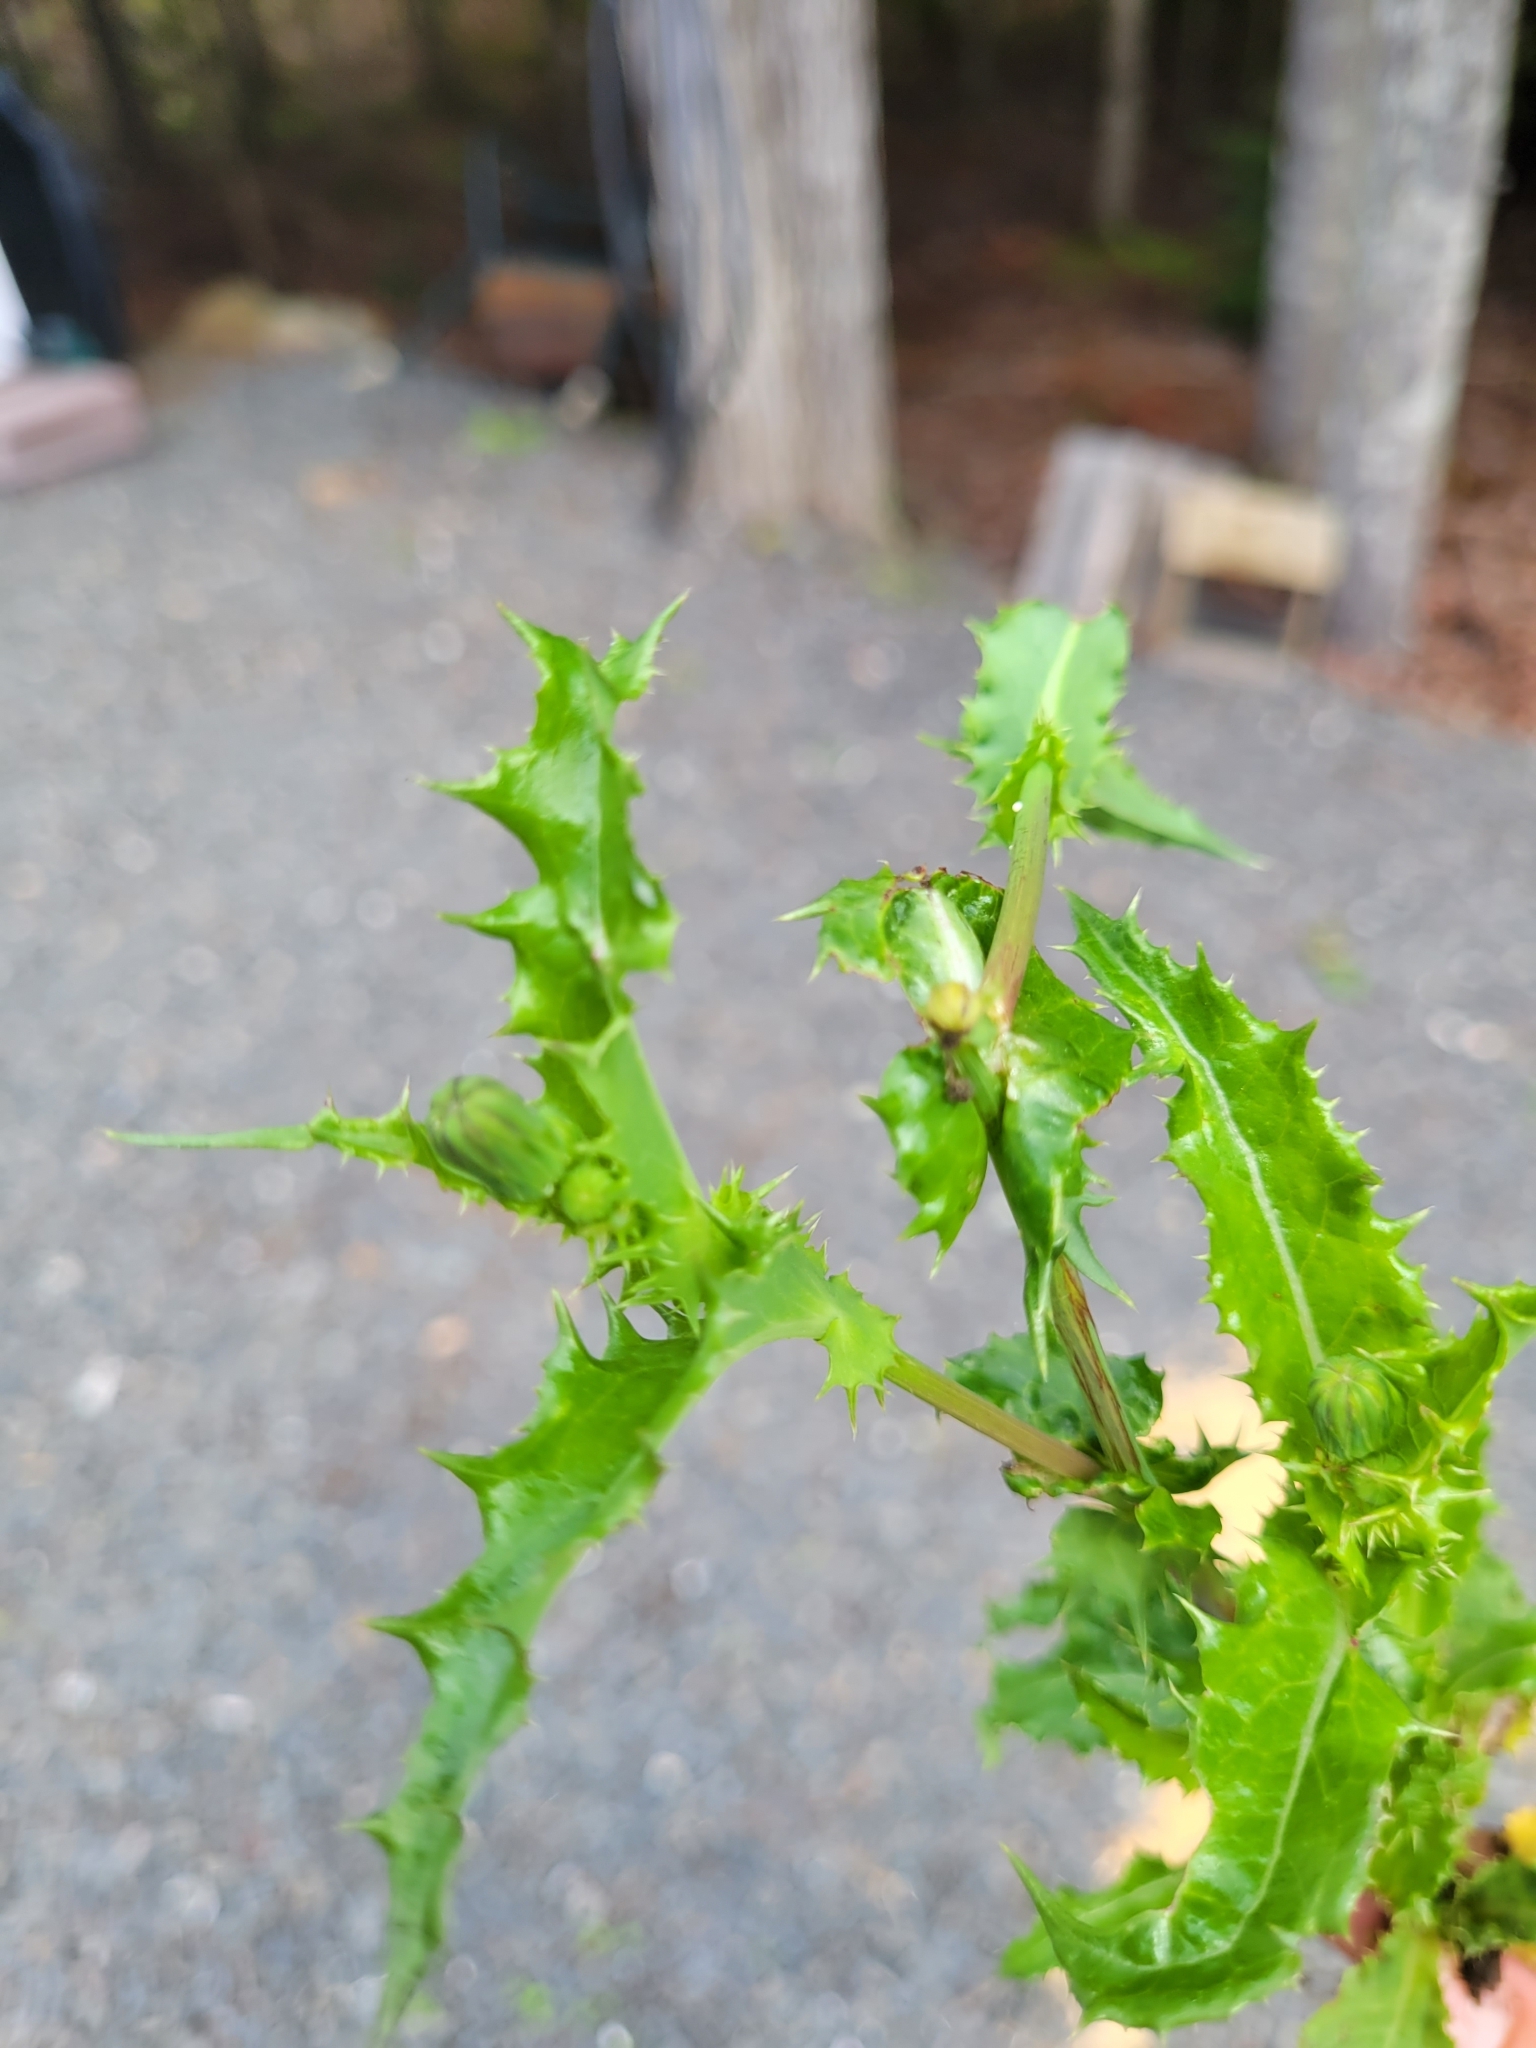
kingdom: Plantae
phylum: Tracheophyta
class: Magnoliopsida
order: Asterales
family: Asteraceae
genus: Sonchus
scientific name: Sonchus asper
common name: Prickly sow-thistle
